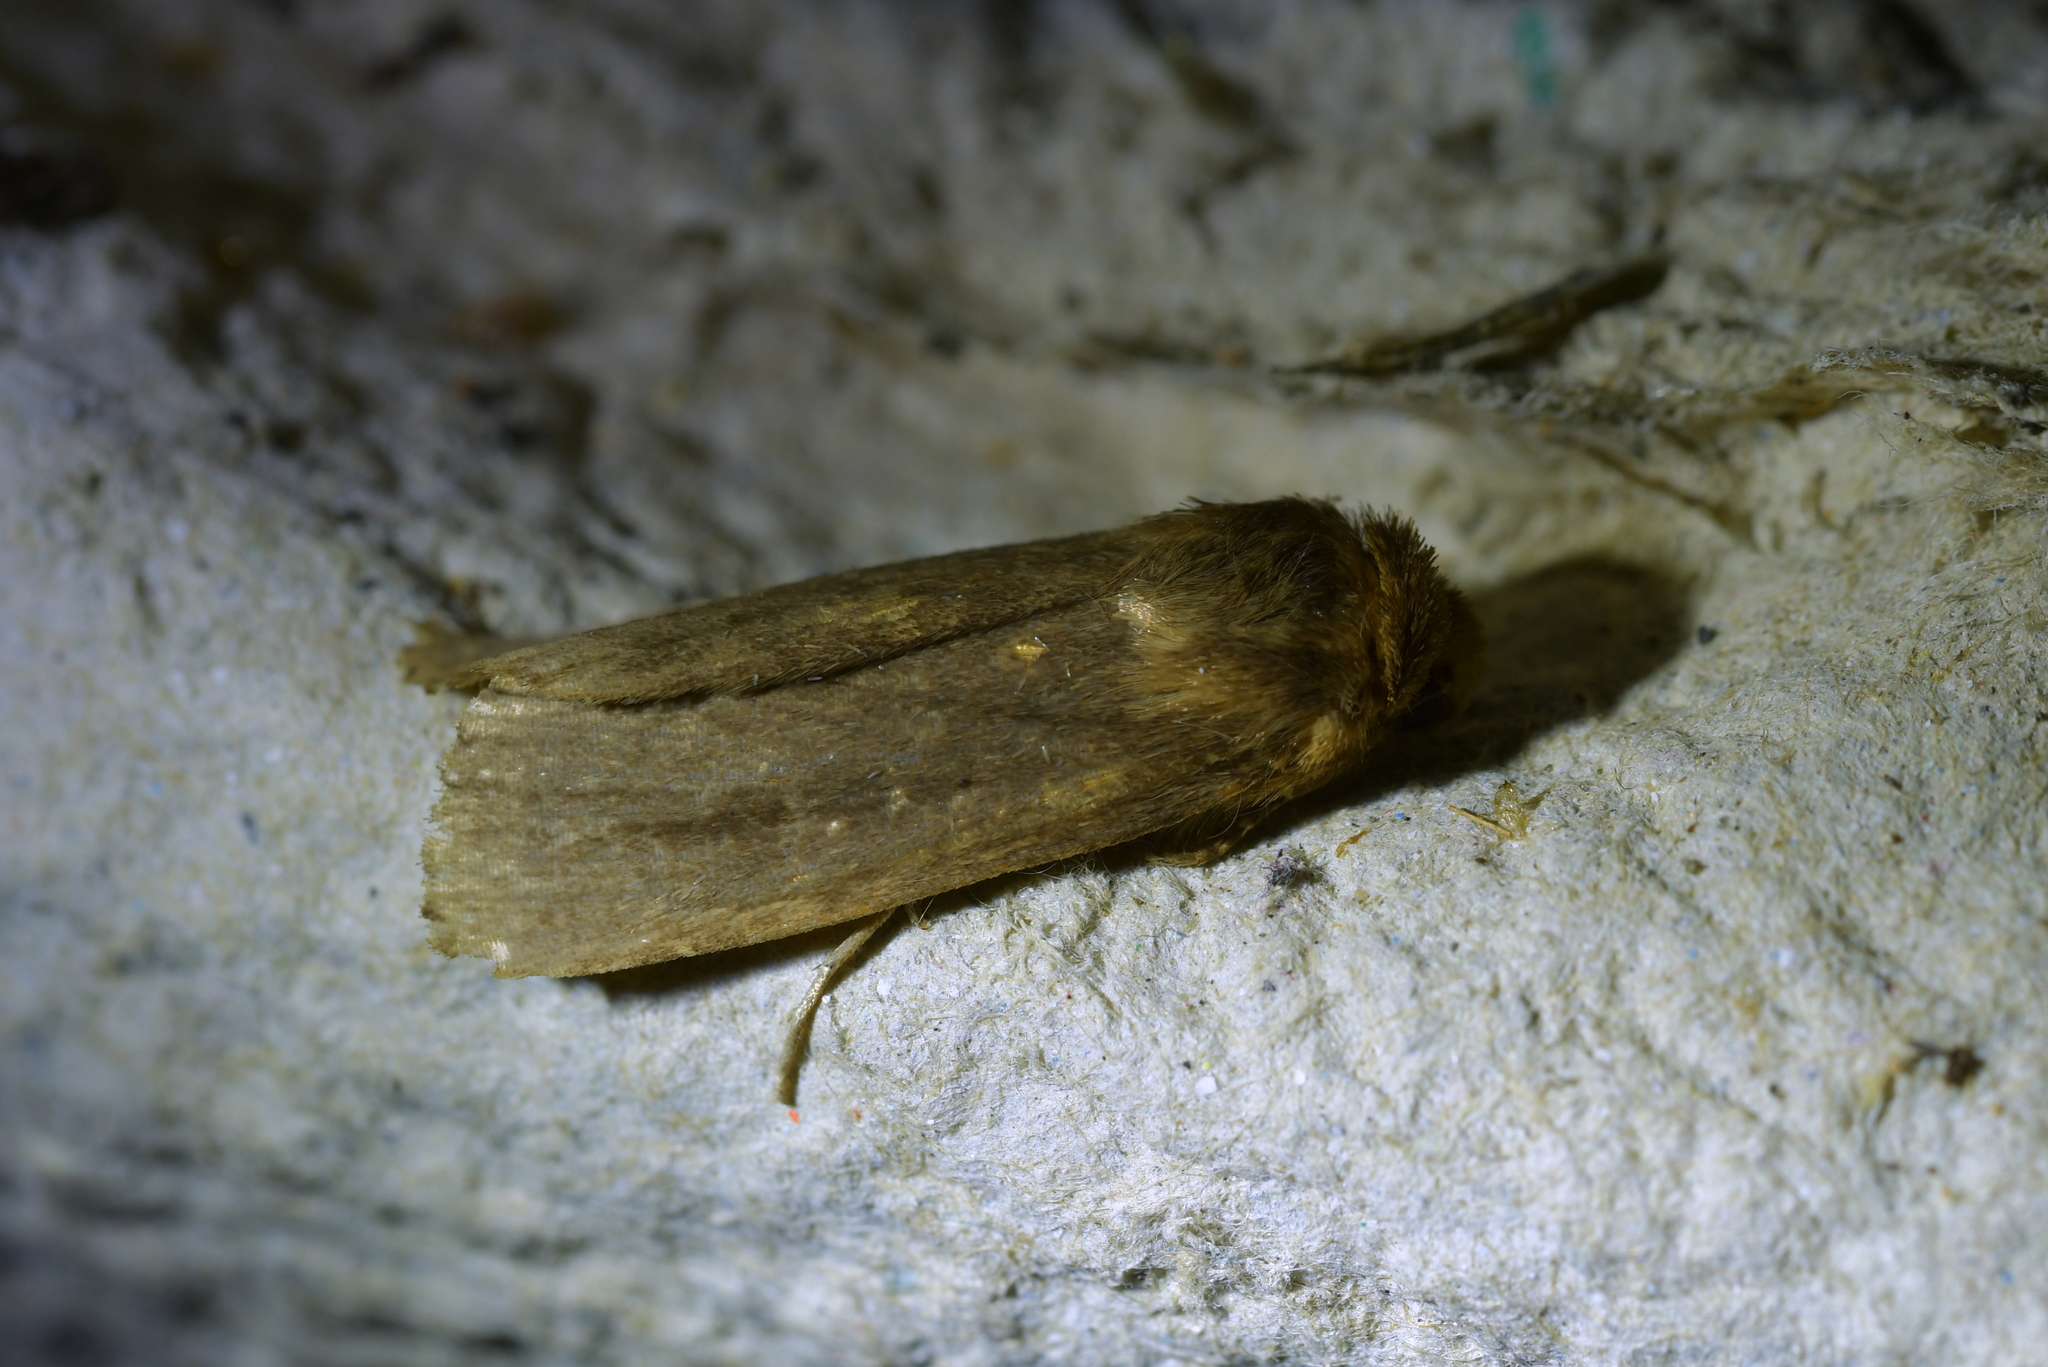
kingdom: Animalia
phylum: Arthropoda
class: Insecta
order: Lepidoptera
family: Noctuidae
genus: Bityla
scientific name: Bityla defigurata
